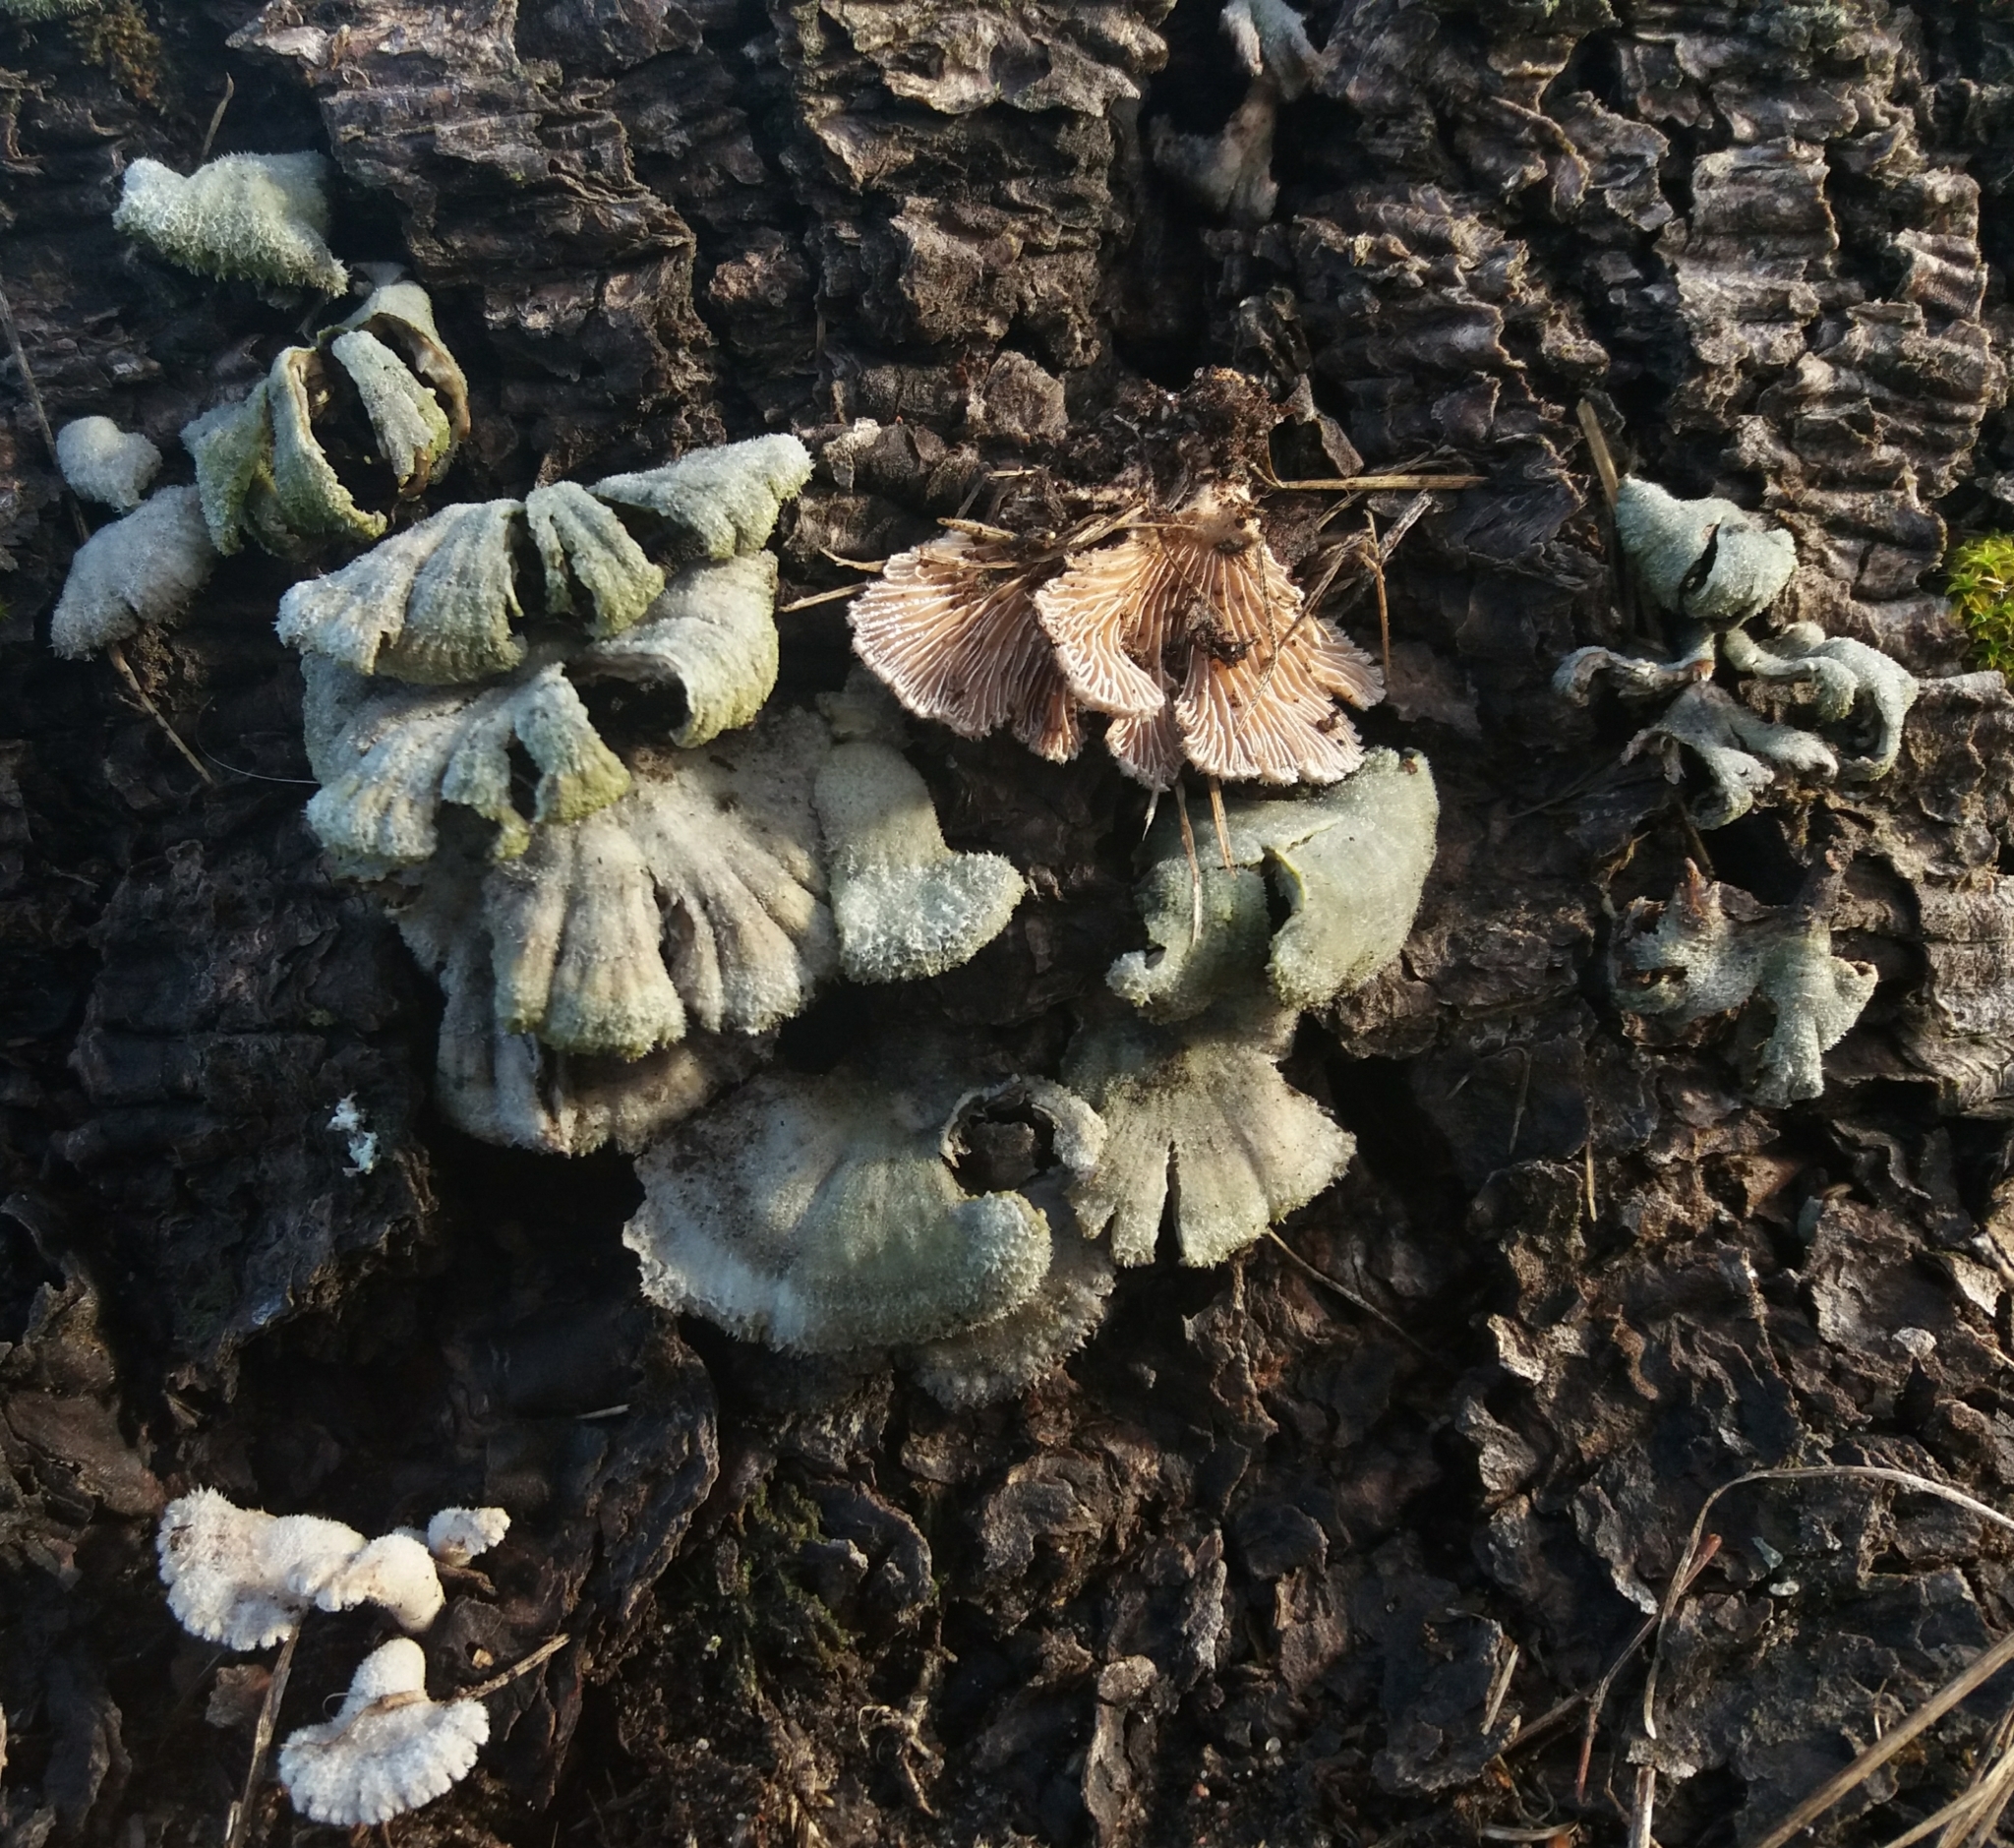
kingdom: Fungi
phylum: Basidiomycota
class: Agaricomycetes
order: Agaricales
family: Schizophyllaceae
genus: Schizophyllum
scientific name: Schizophyllum commune
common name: Common porecrust
